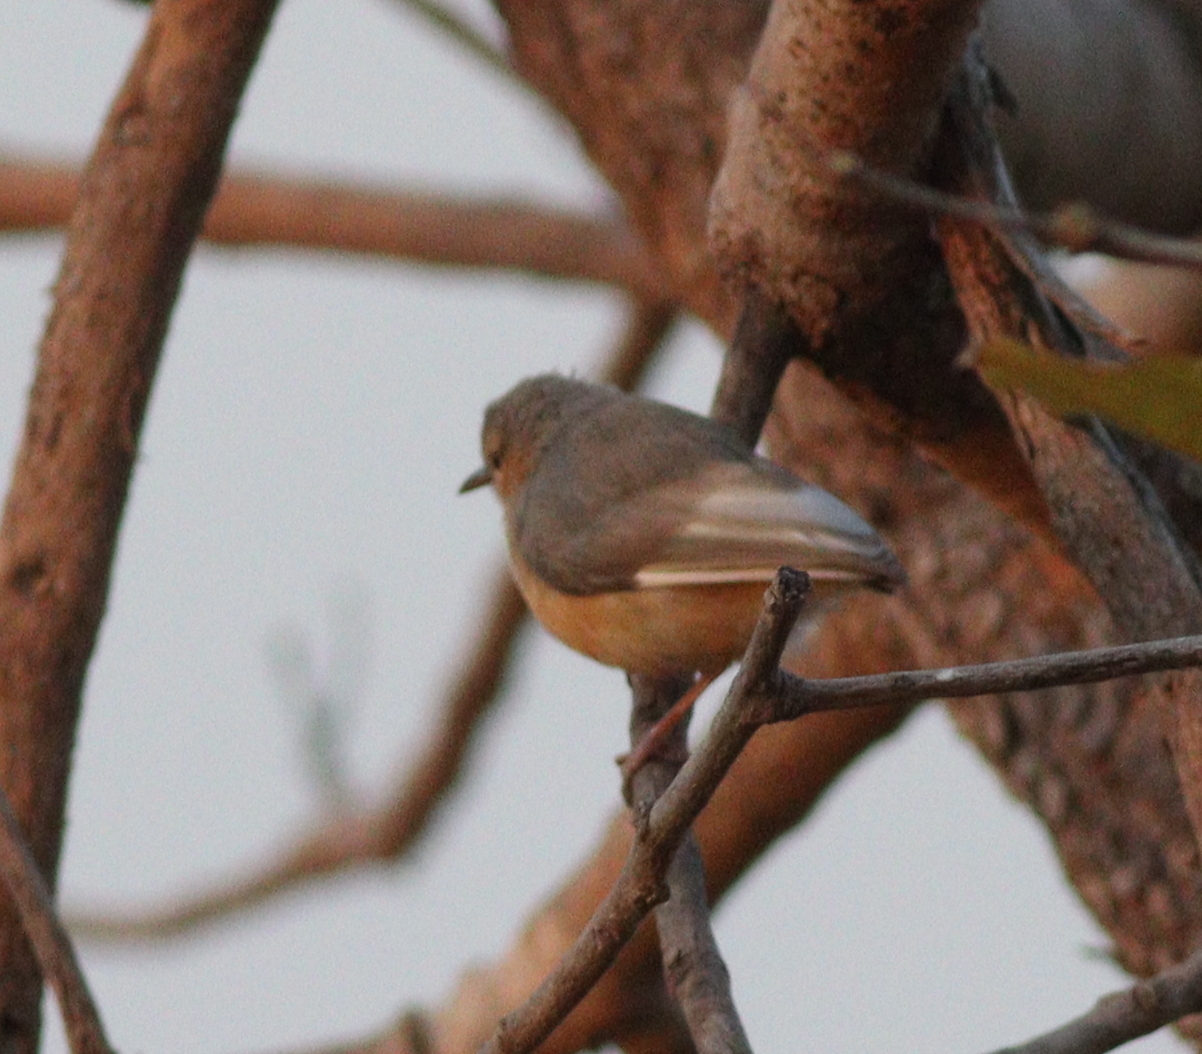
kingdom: Animalia
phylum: Chordata
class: Aves
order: Passeriformes
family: Macrosphenidae
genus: Sylvietta
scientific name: Sylvietta brachyura
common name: Northern crombec
